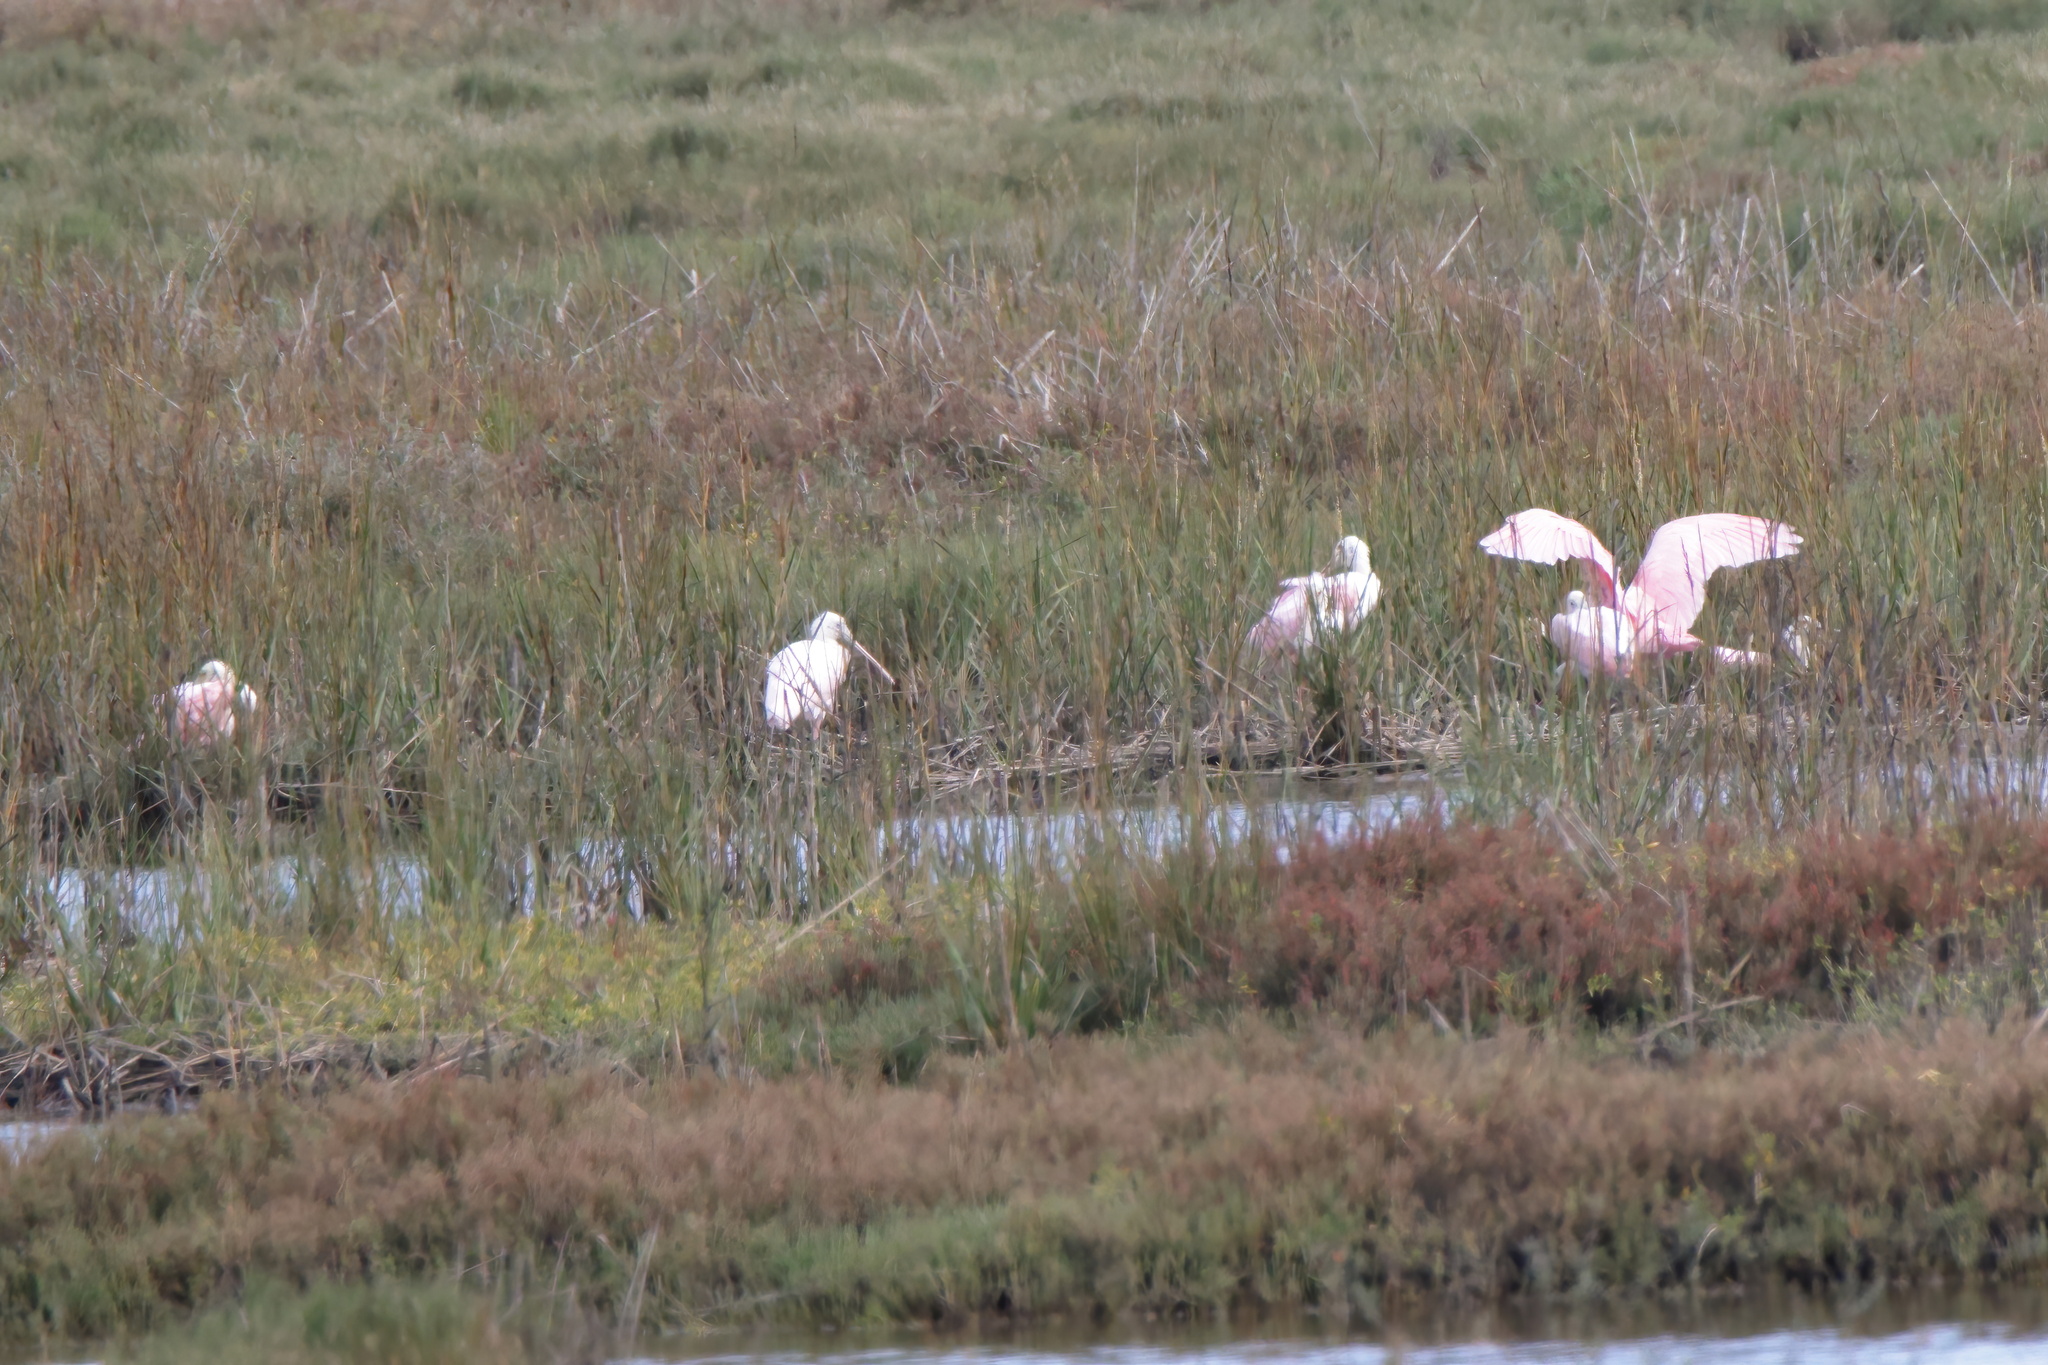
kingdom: Animalia
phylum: Chordata
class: Aves
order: Pelecaniformes
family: Threskiornithidae
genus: Platalea
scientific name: Platalea ajaja
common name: Roseate spoonbill
